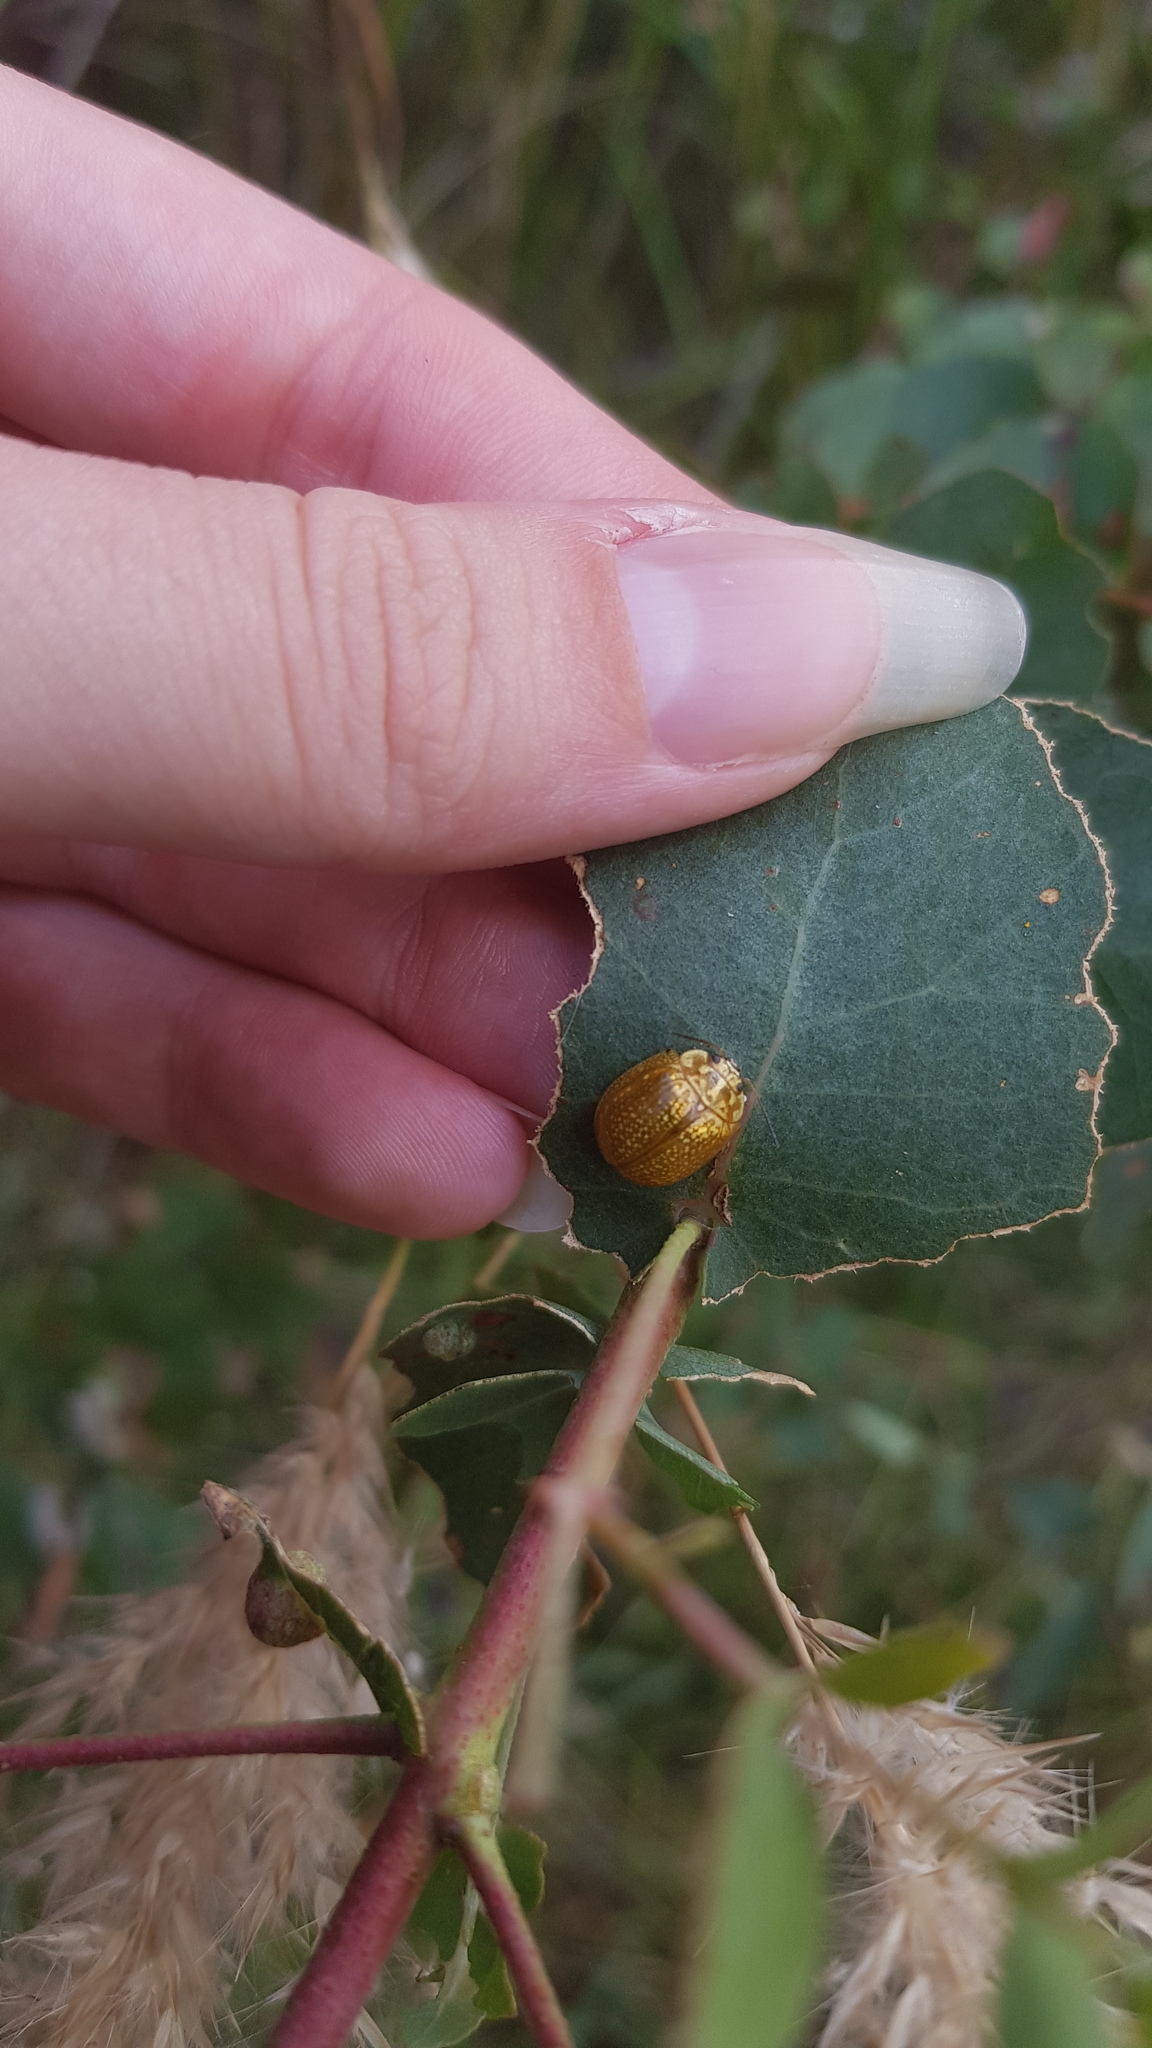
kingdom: Animalia
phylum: Arthropoda
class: Insecta
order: Coleoptera
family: Chrysomelidae
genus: Paropsisterna
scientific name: Paropsisterna cloelia
